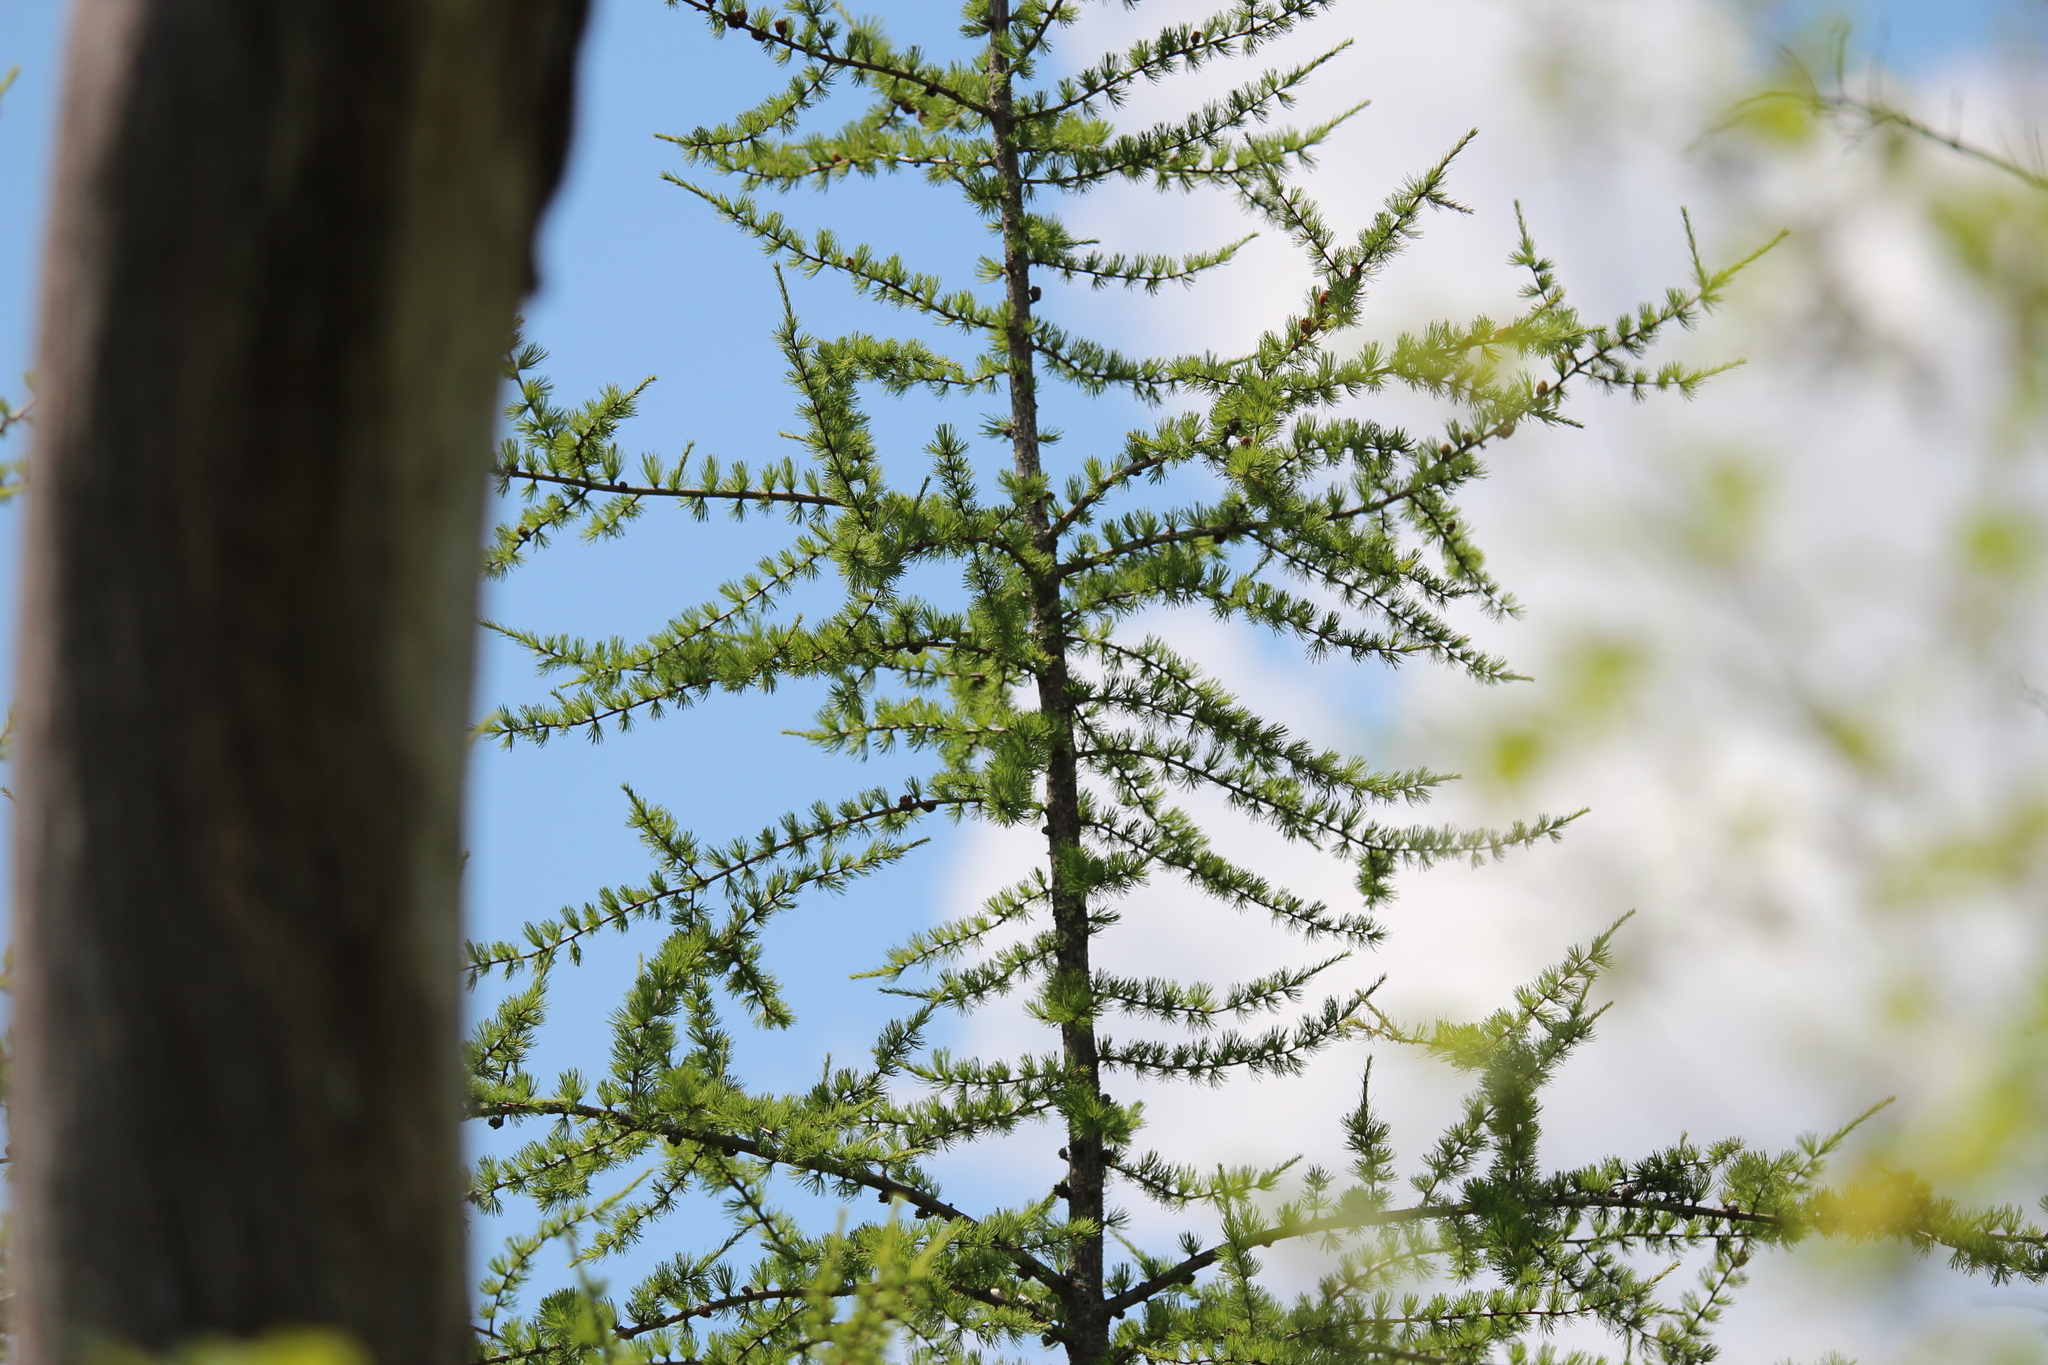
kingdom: Plantae
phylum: Tracheophyta
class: Pinopsida
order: Pinales
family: Pinaceae
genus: Larix
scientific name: Larix laricina
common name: American larch
